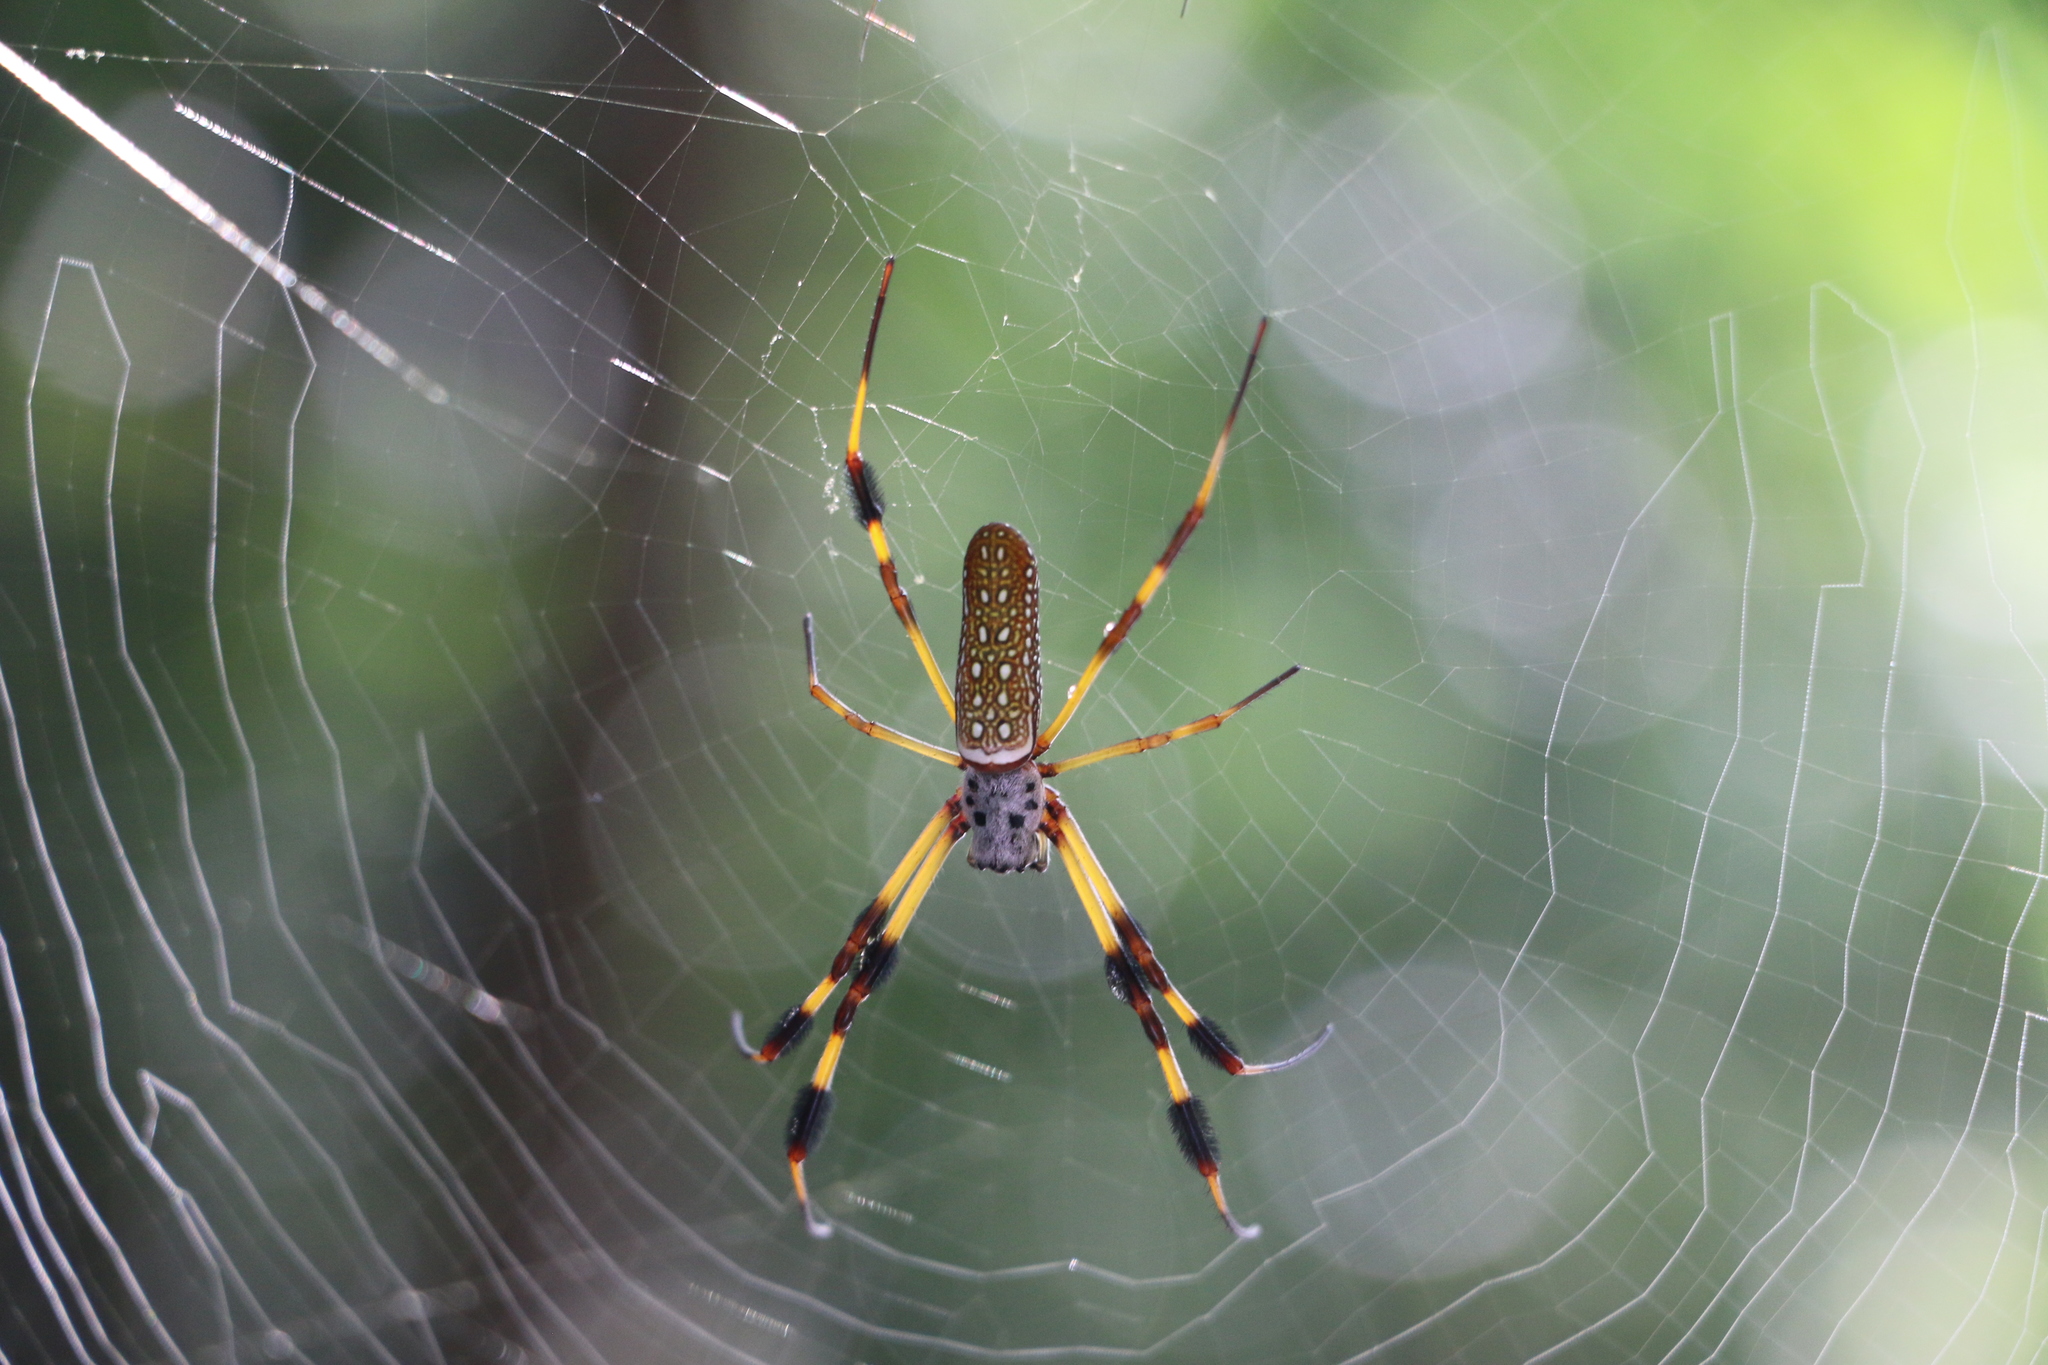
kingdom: Animalia
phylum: Arthropoda
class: Arachnida
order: Araneae
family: Araneidae
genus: Trichonephila
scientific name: Trichonephila clavipes
